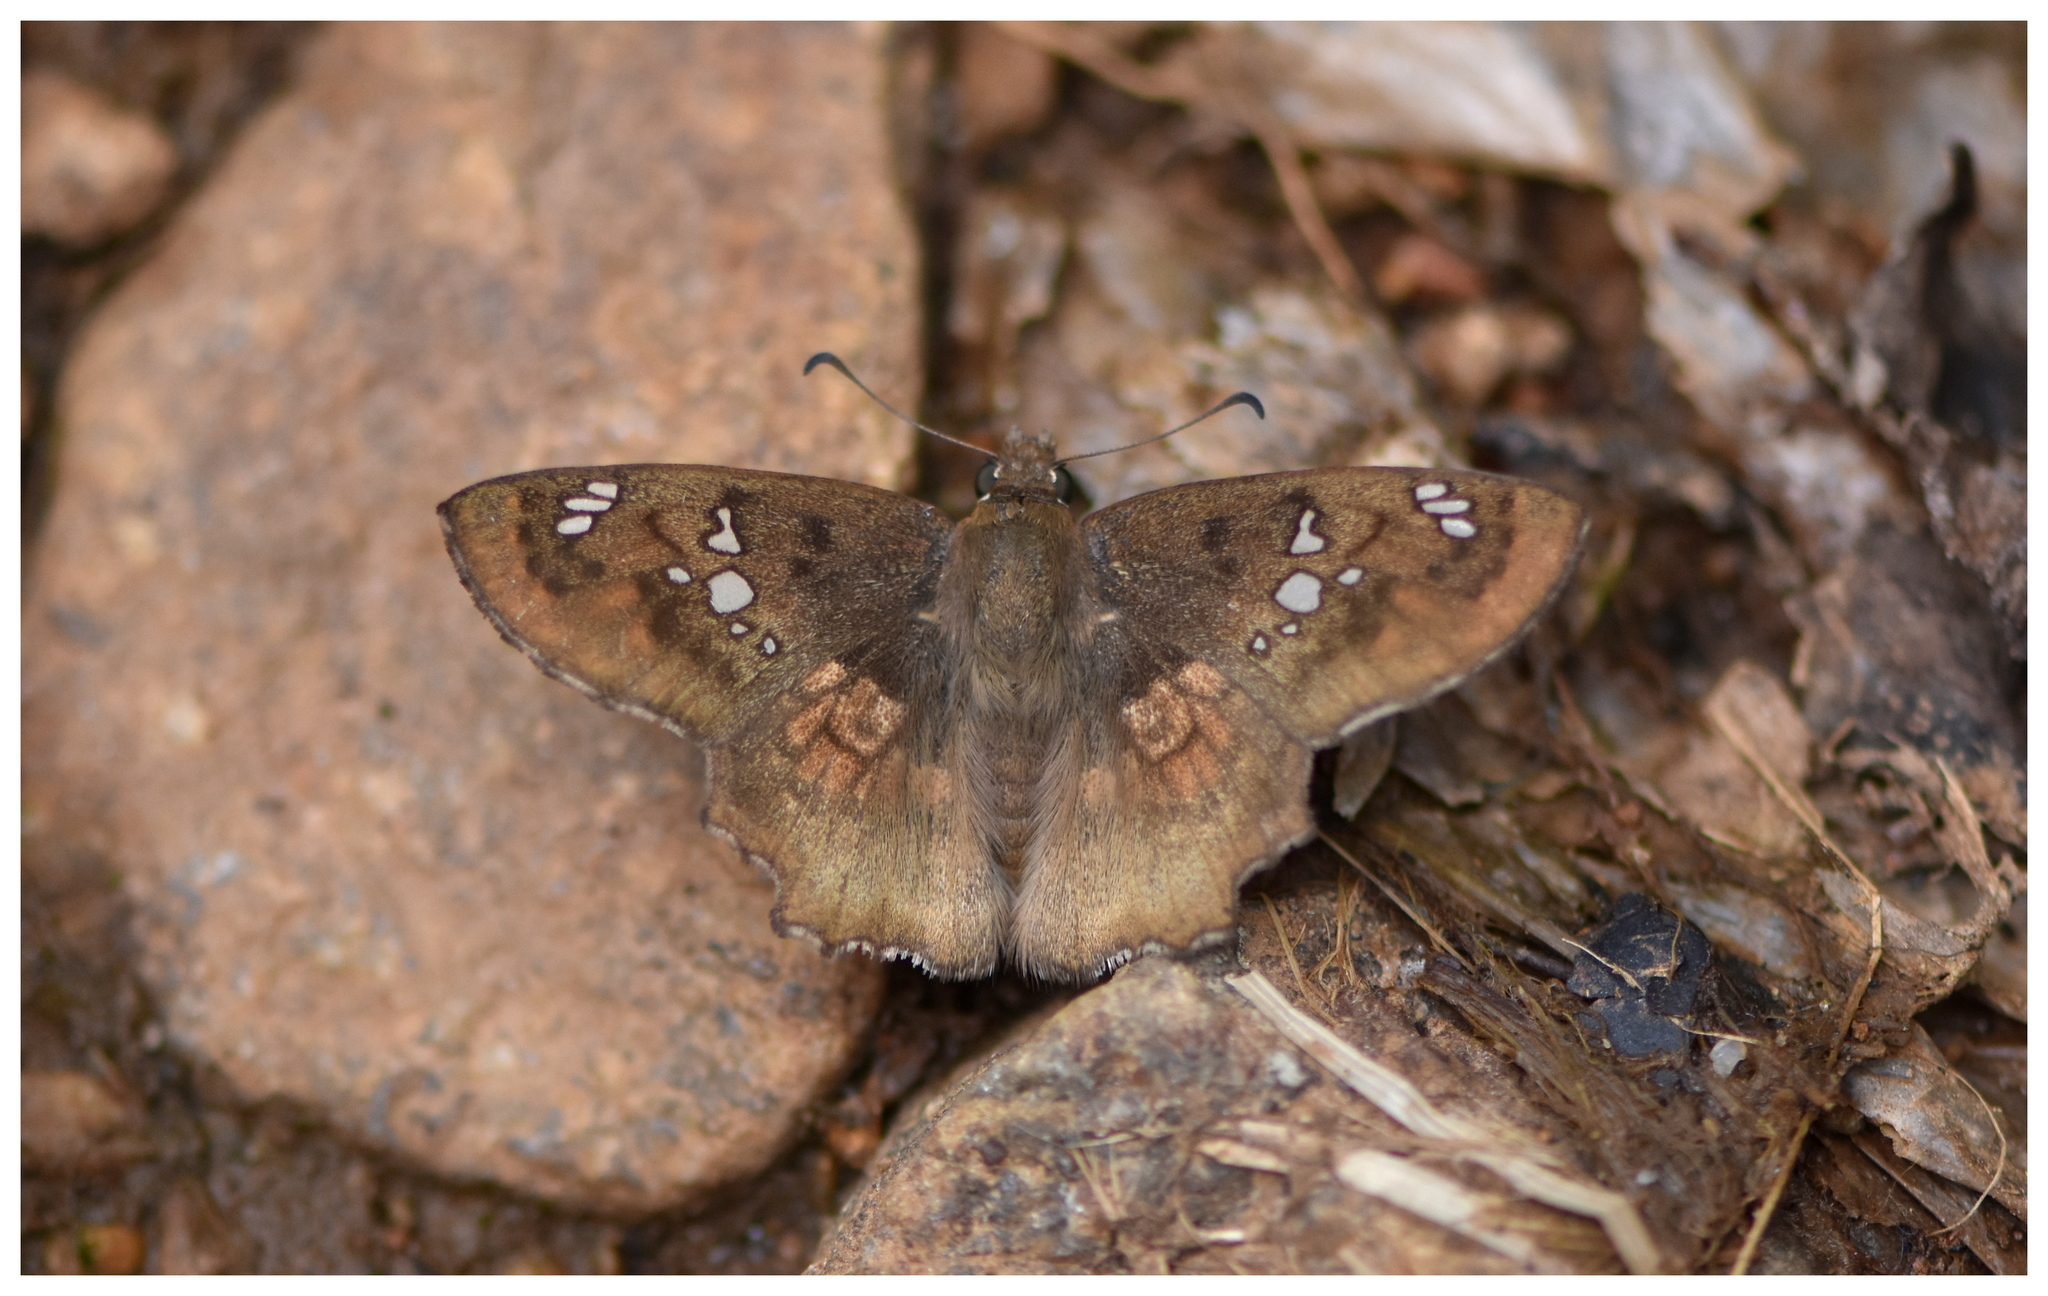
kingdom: Animalia
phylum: Arthropoda
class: Insecta
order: Lepidoptera
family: Hesperiidae
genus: Caprona
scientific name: Caprona ransonnettii
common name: Golden angle
